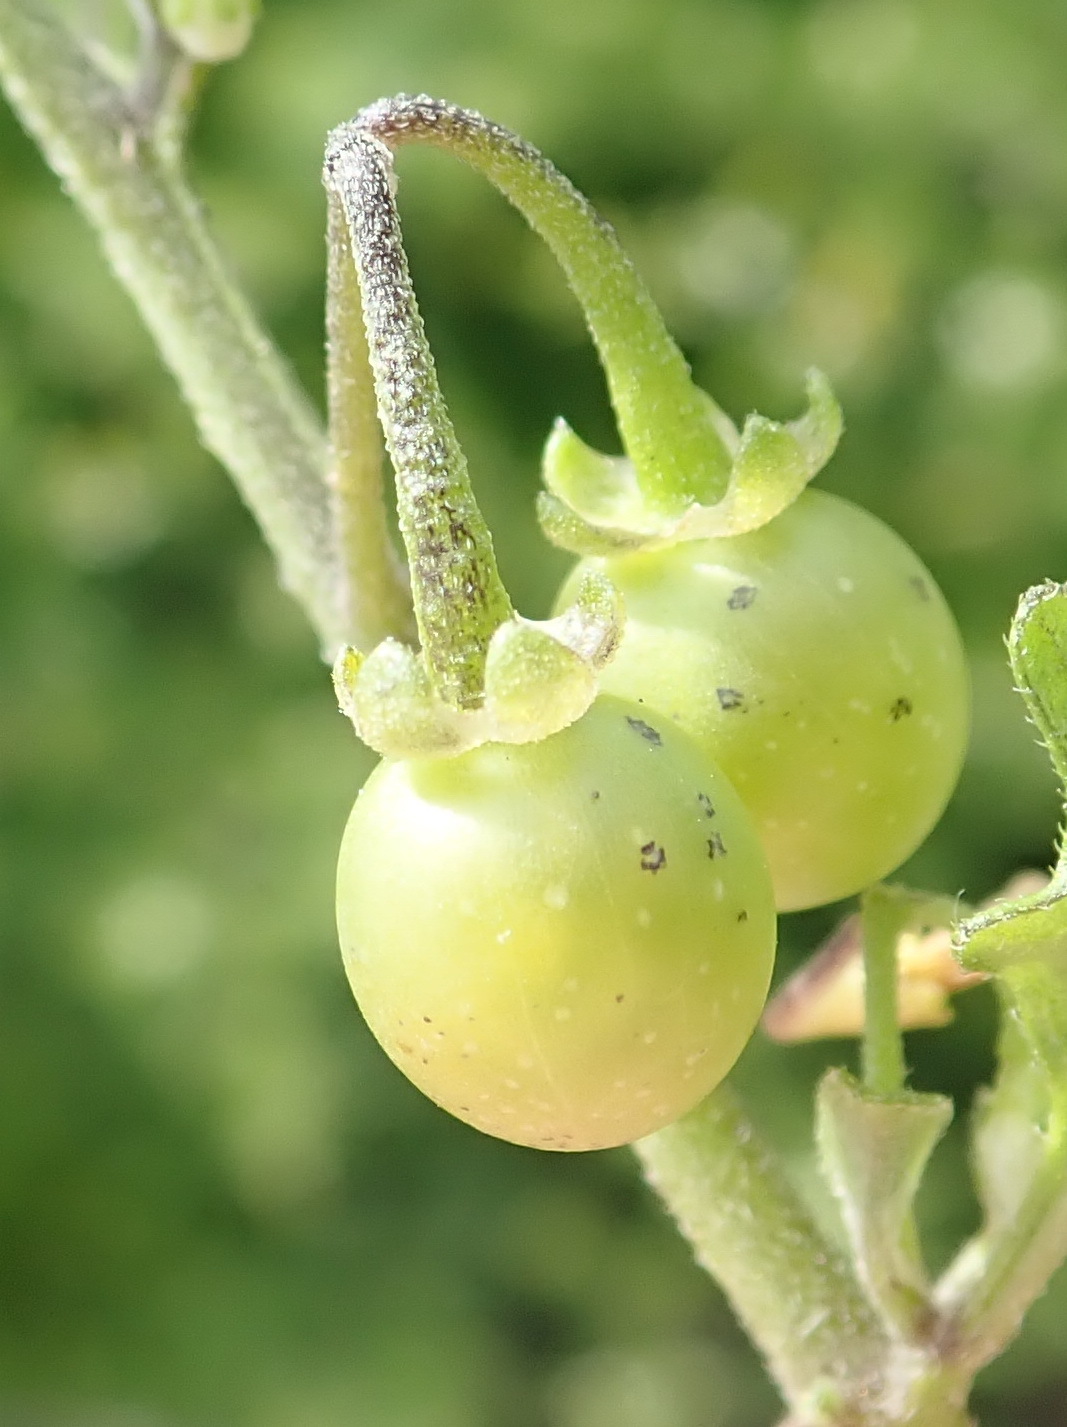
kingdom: Plantae
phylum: Tracheophyta
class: Magnoliopsida
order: Solanales
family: Solanaceae
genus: Solanum
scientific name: Solanum retroflexum
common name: Wonderberry
